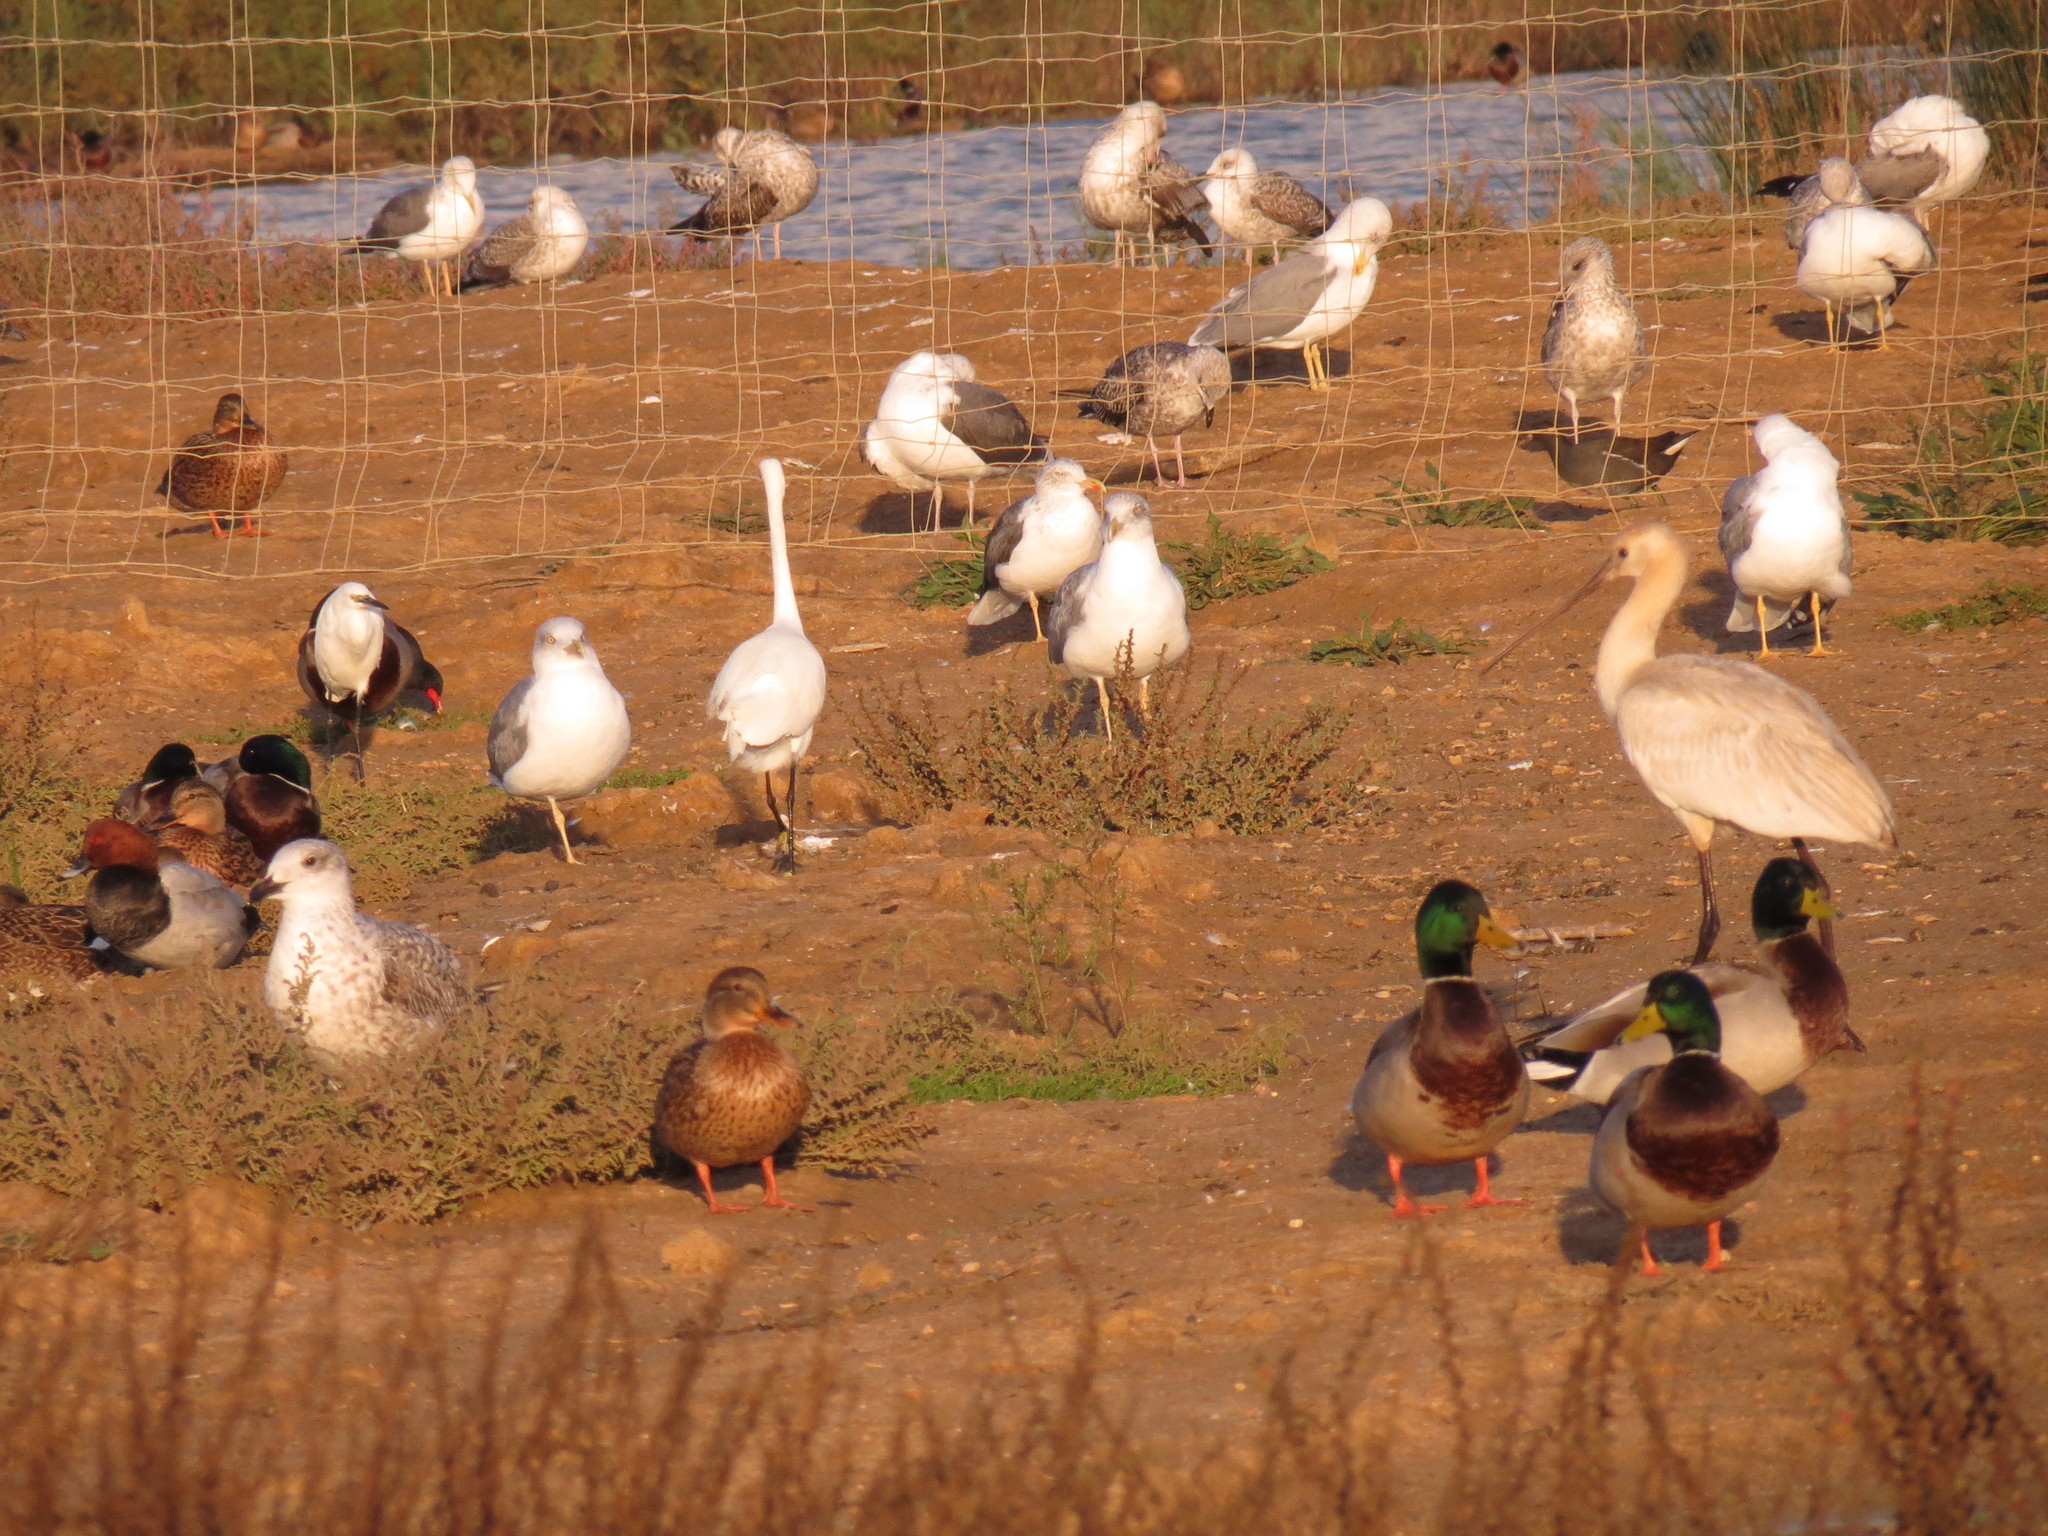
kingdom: Animalia
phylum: Chordata
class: Aves
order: Anseriformes
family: Anatidae
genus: Aythya
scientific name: Aythya ferina
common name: Common pochard
